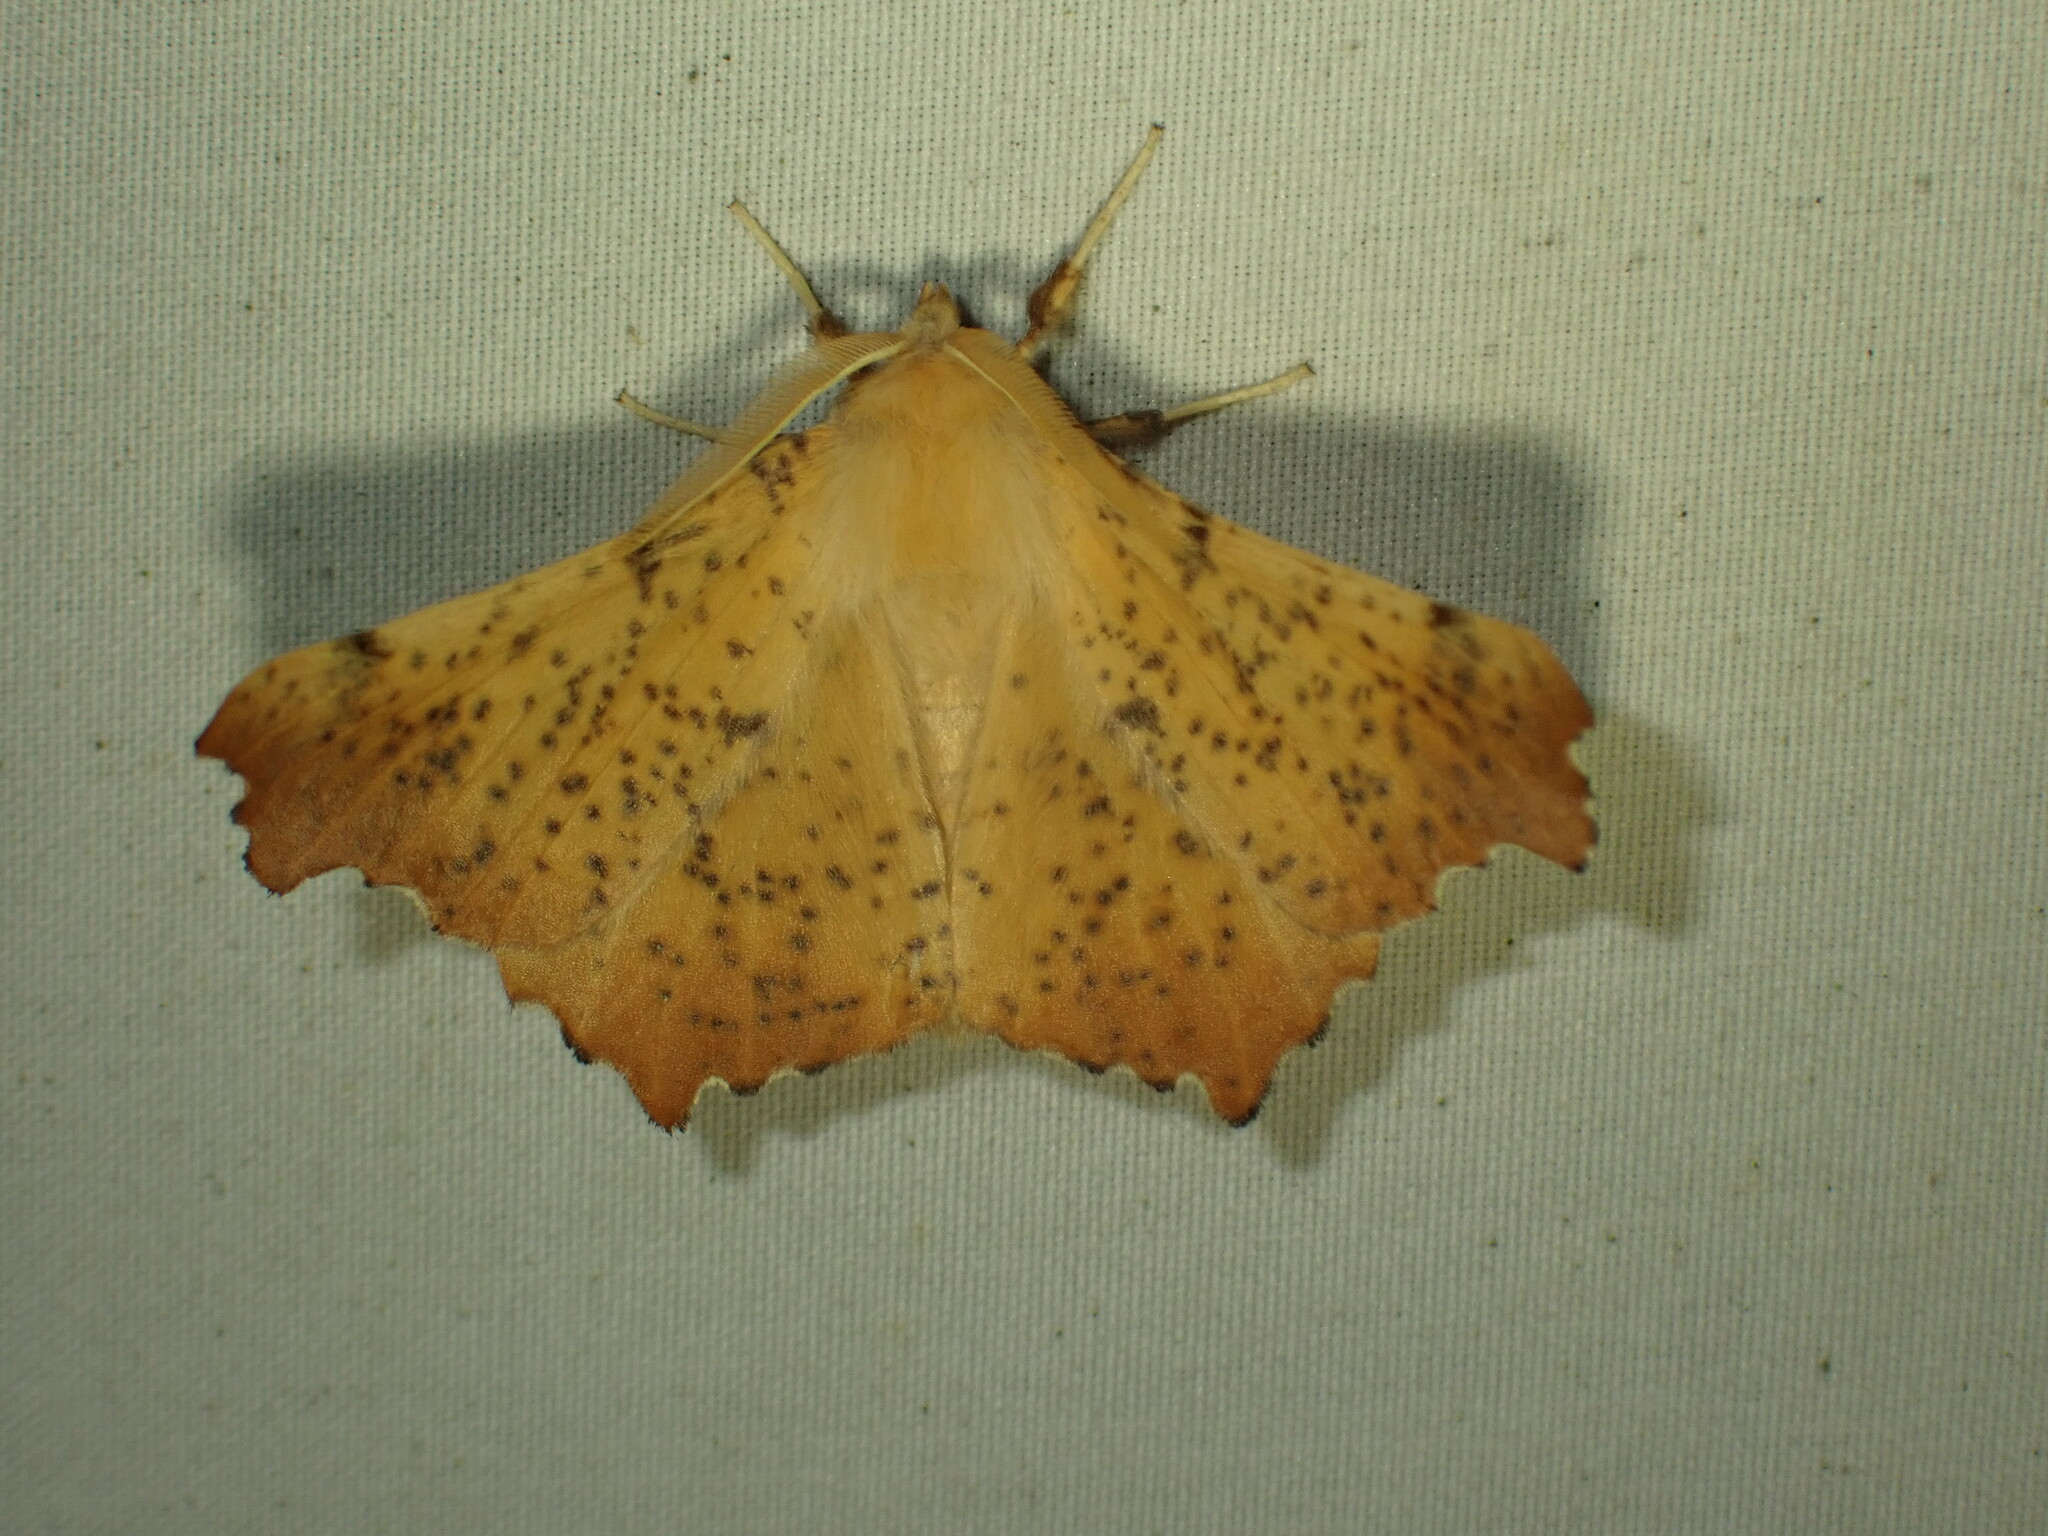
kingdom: Animalia
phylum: Arthropoda
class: Insecta
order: Lepidoptera
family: Geometridae
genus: Ennomos
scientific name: Ennomos magnaria
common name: Maple spanworm
